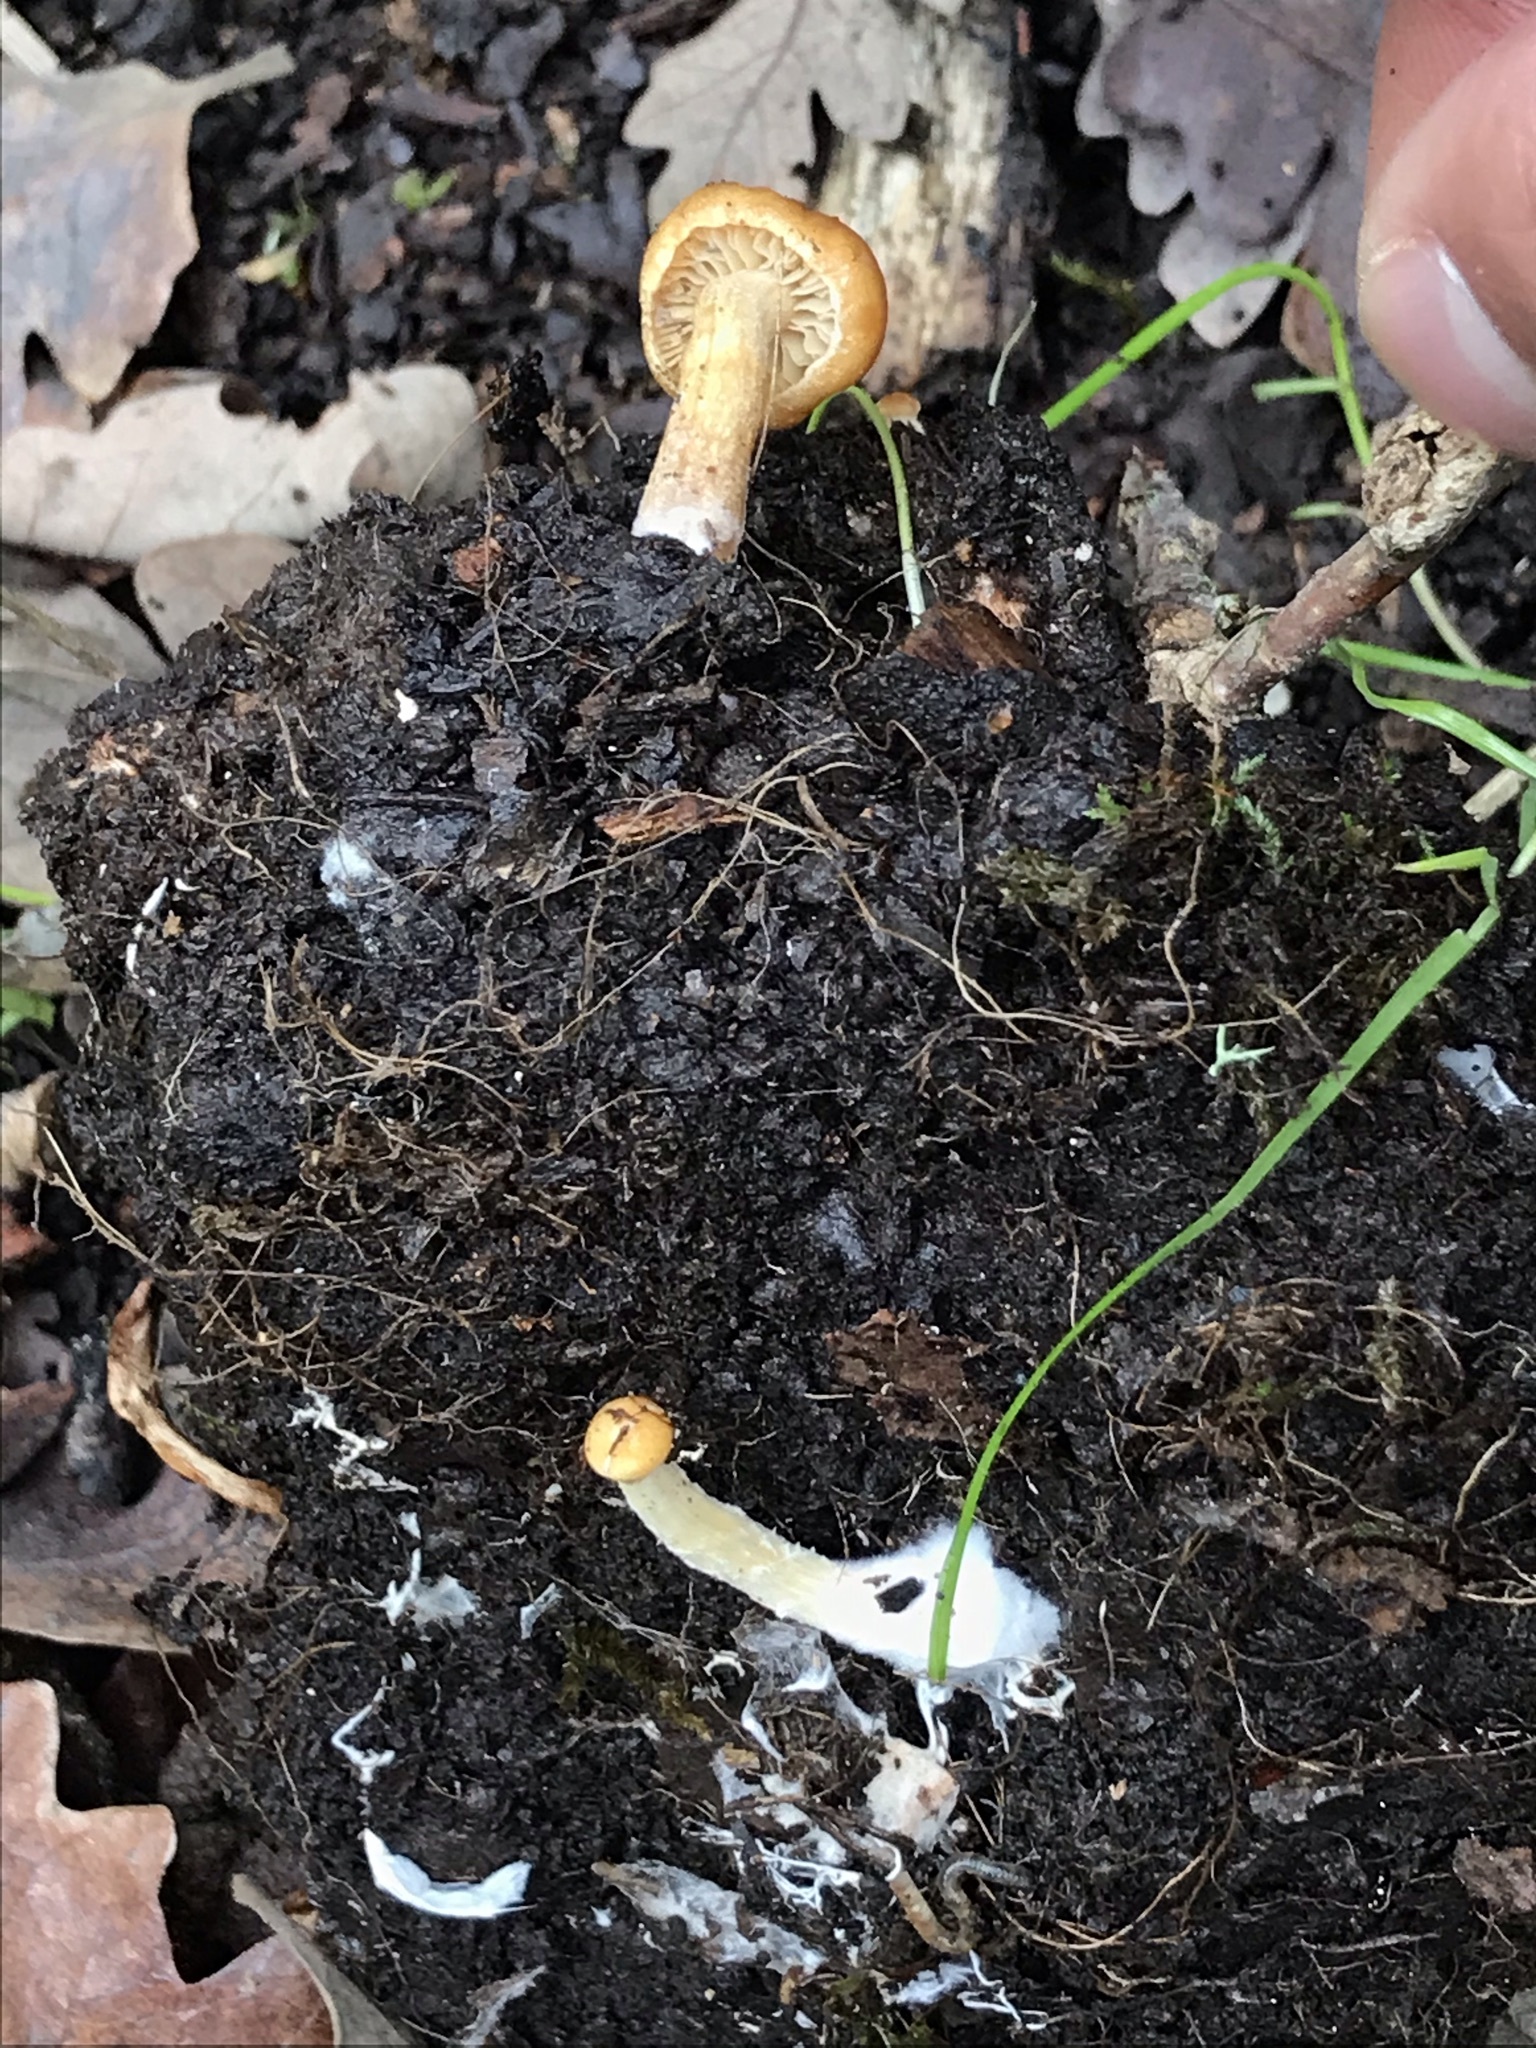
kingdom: Fungi
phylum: Basidiomycota
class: Agaricomycetes
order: Agaricales
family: Strophariaceae
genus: Agrocybe
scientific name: Agrocybe pediades
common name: Common fieldcap
